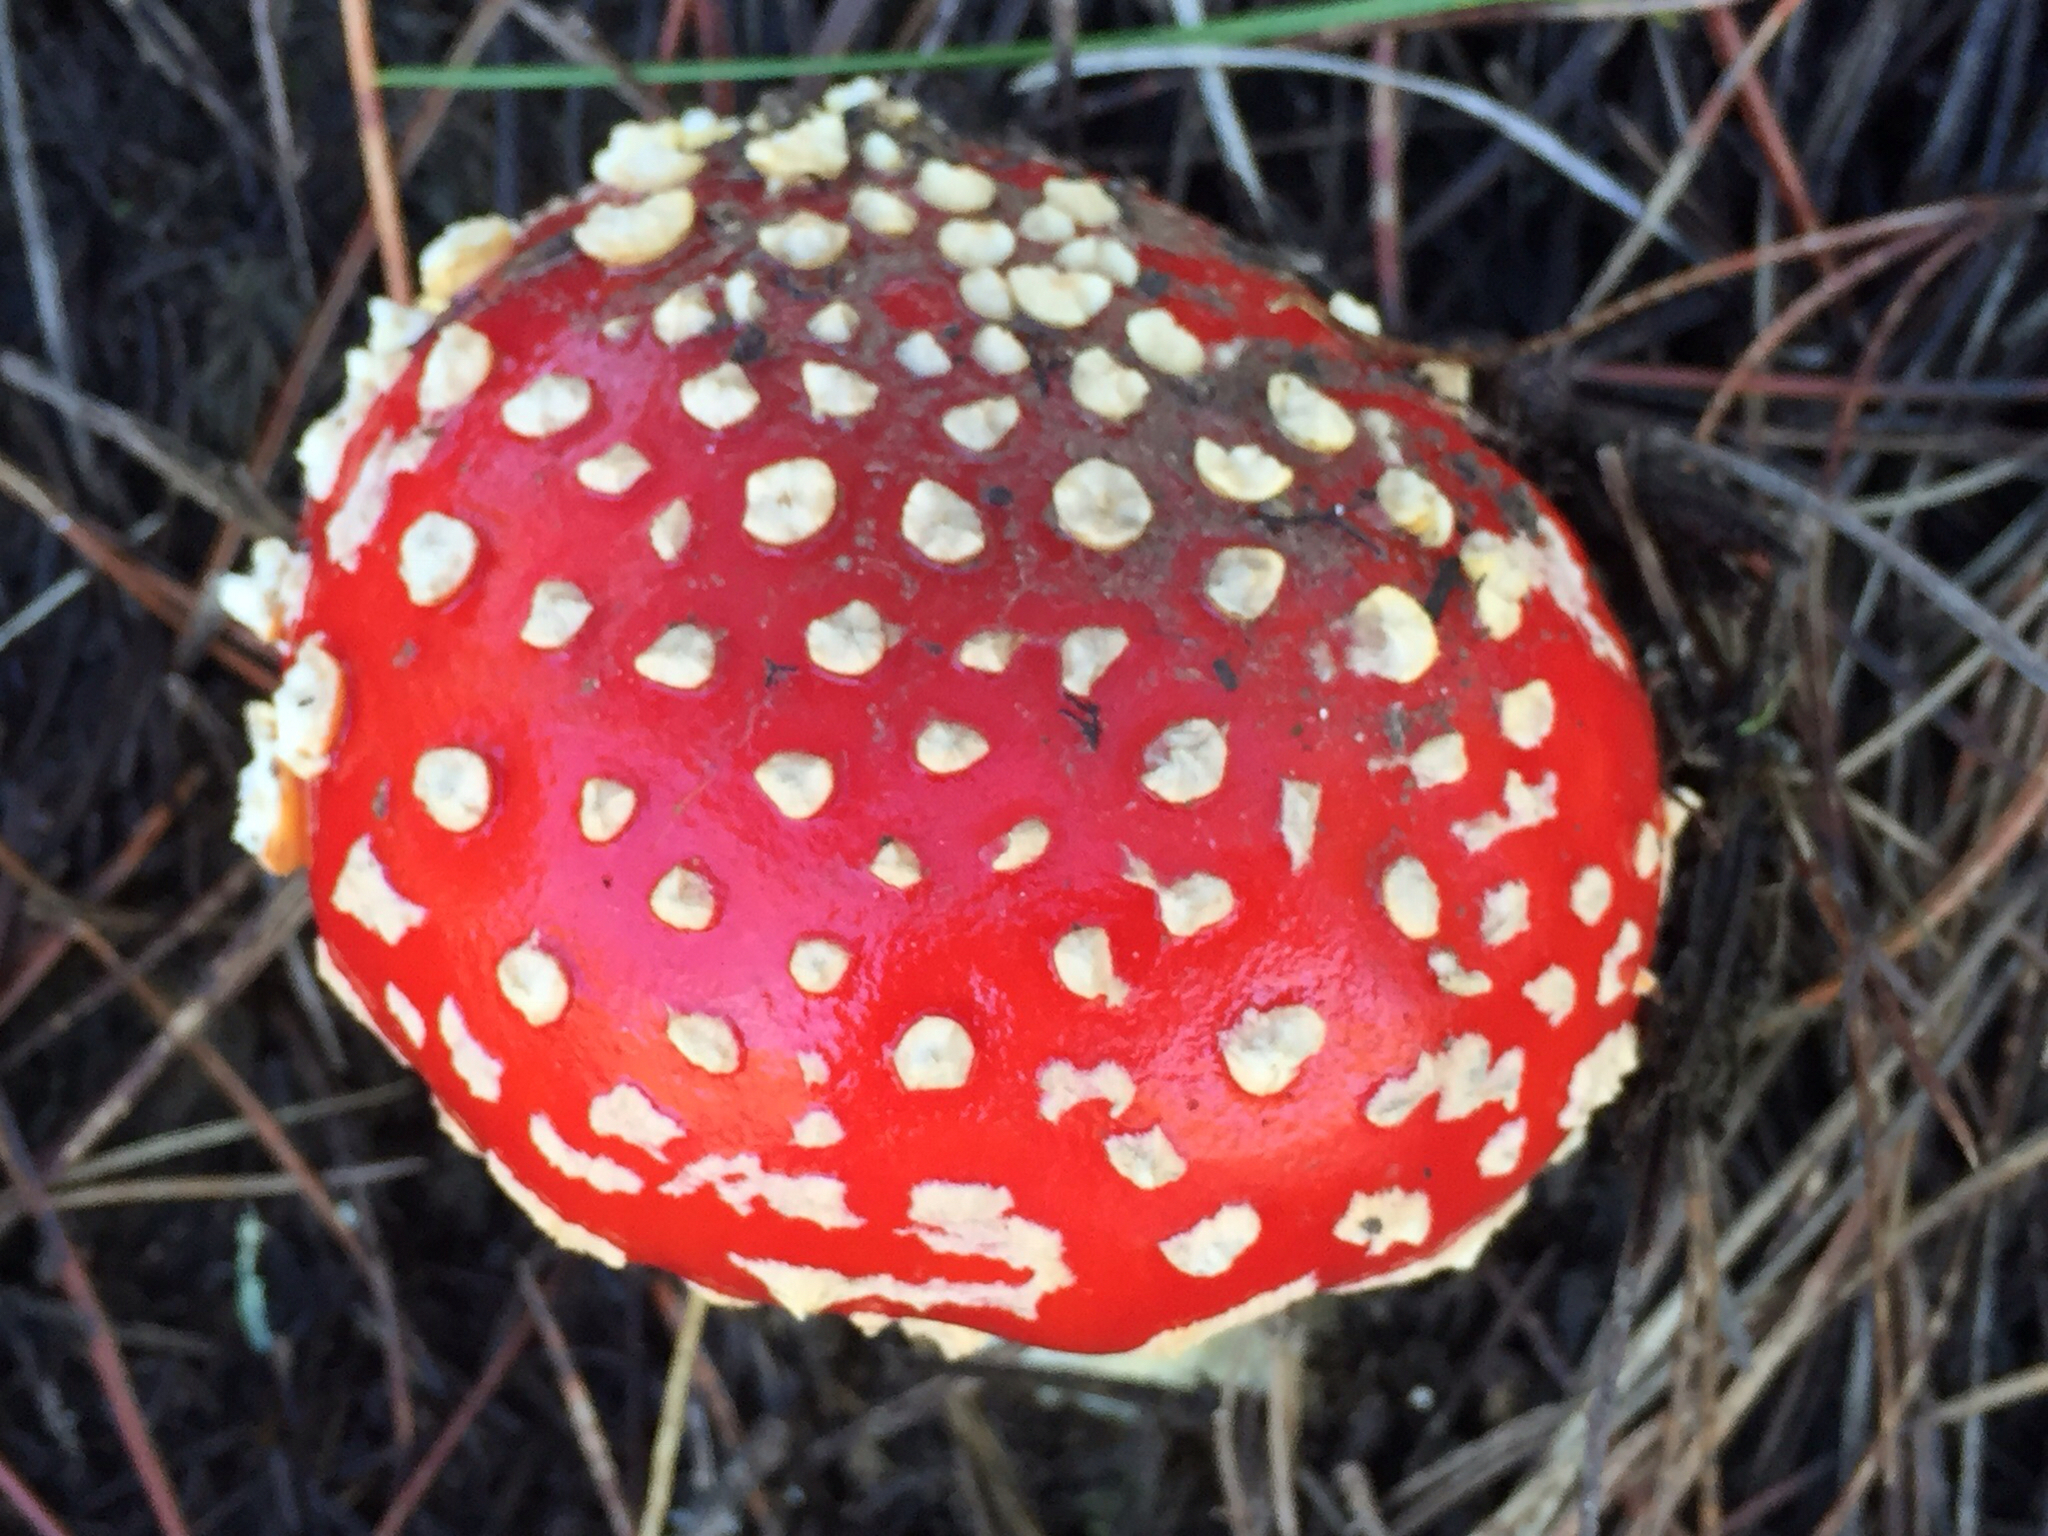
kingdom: Fungi
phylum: Basidiomycota
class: Agaricomycetes
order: Agaricales
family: Amanitaceae
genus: Amanita
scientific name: Amanita muscaria
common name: Fly agaric
